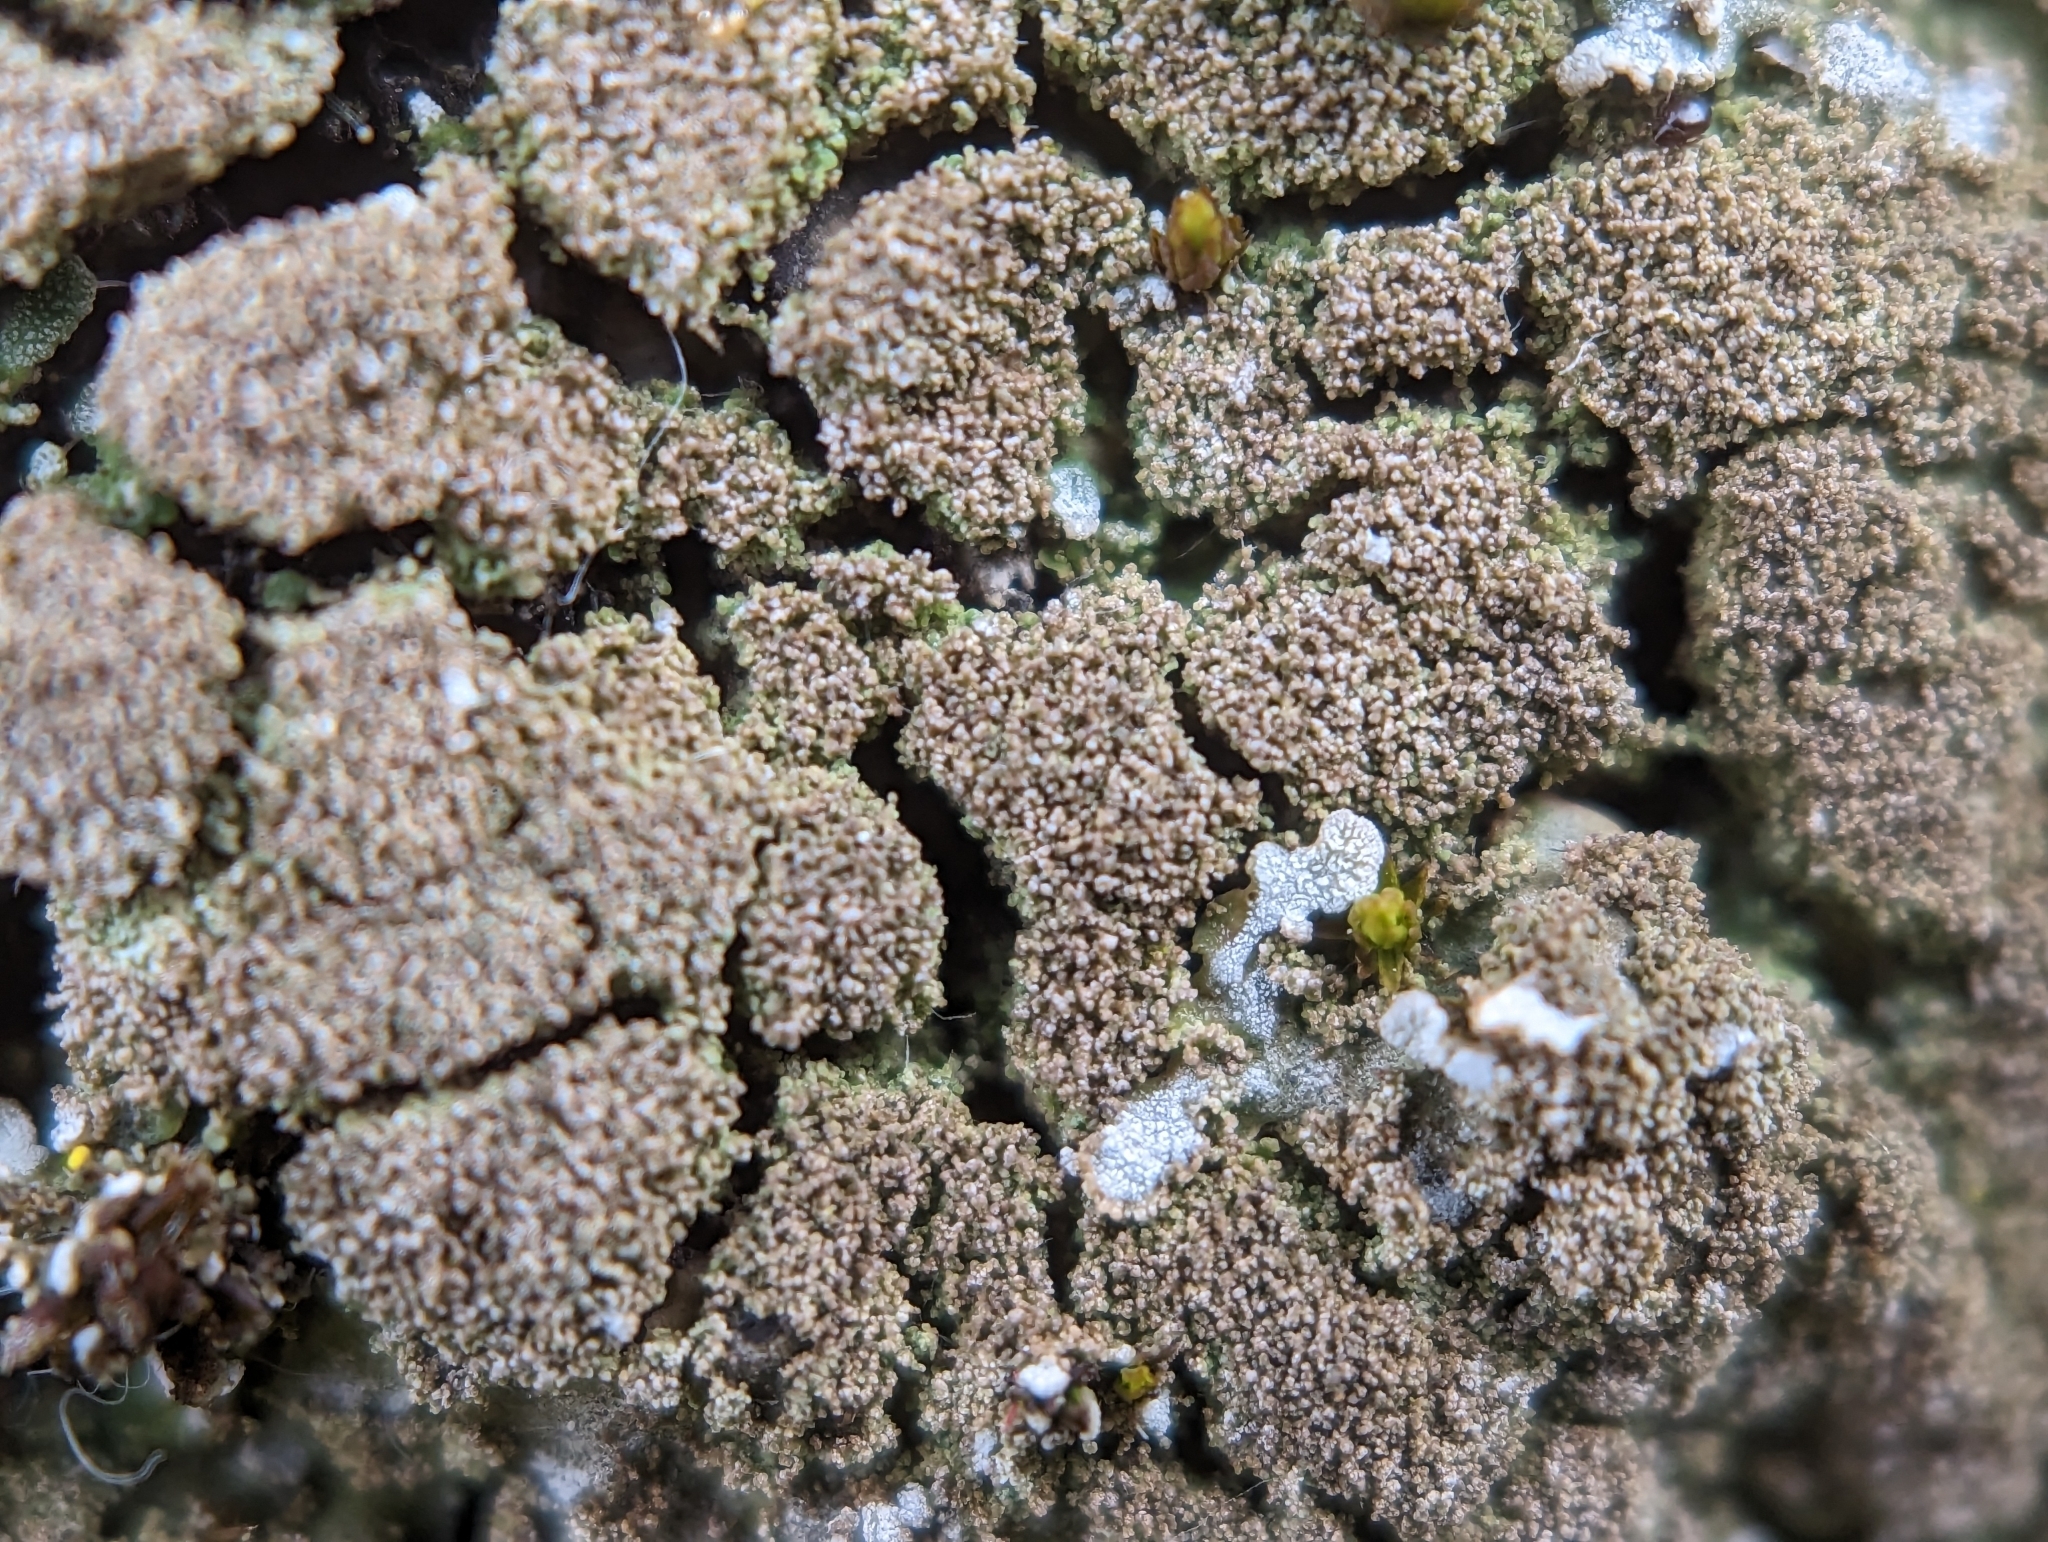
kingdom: Fungi
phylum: Ascomycota
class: Lecanoromycetes
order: Caliciales
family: Physciaceae
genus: Poeltonia
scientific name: Poeltonia grisea
